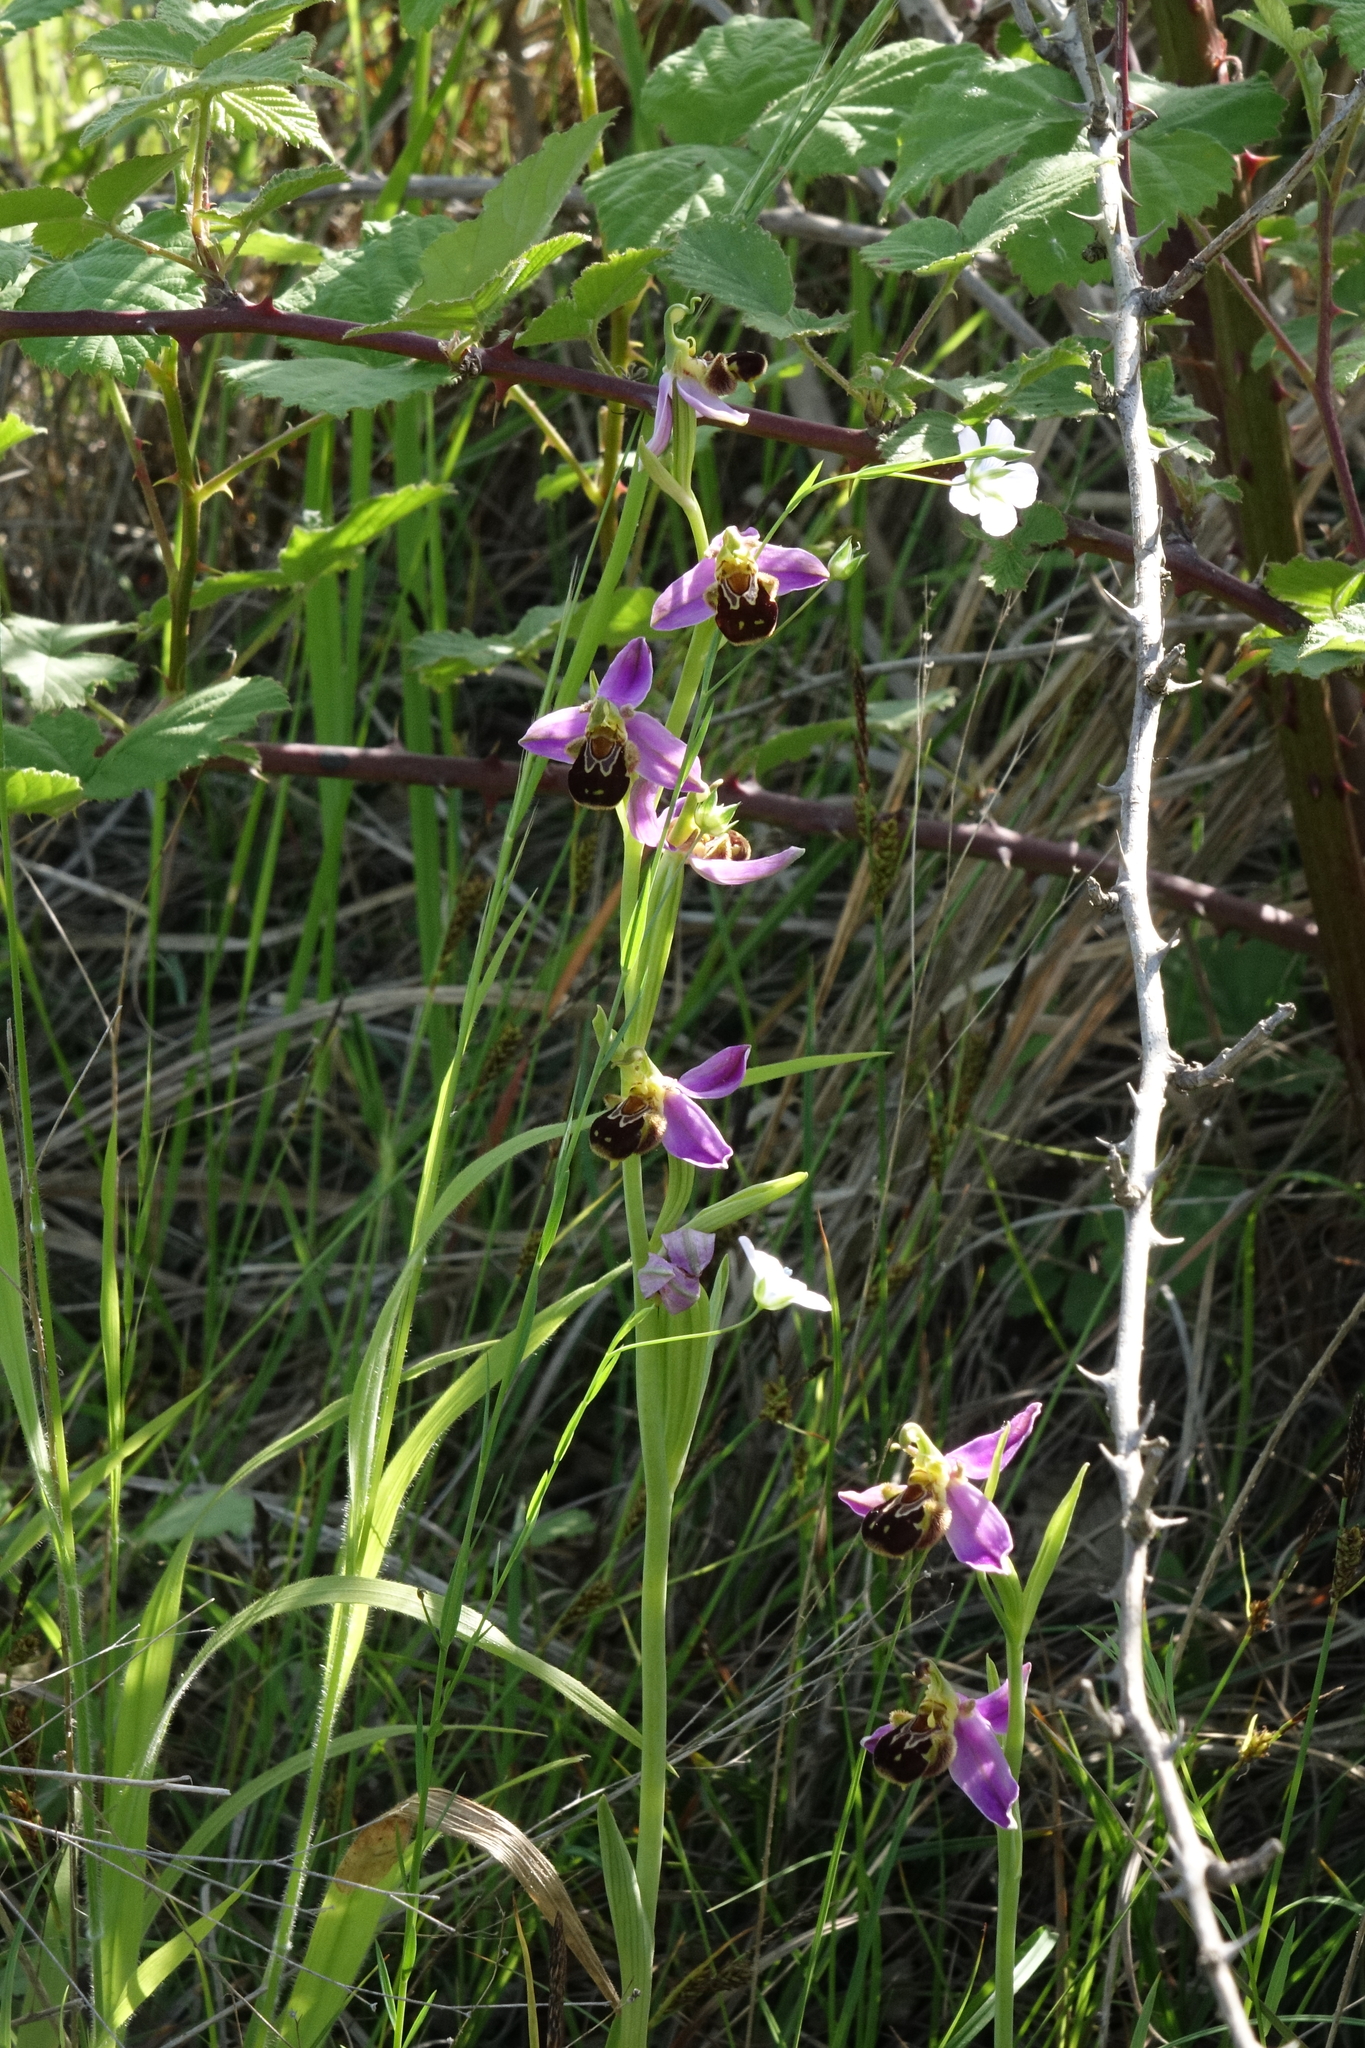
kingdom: Plantae
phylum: Tracheophyta
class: Liliopsida
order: Asparagales
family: Orchidaceae
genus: Ophrys
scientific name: Ophrys apifera
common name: Bee orchid
